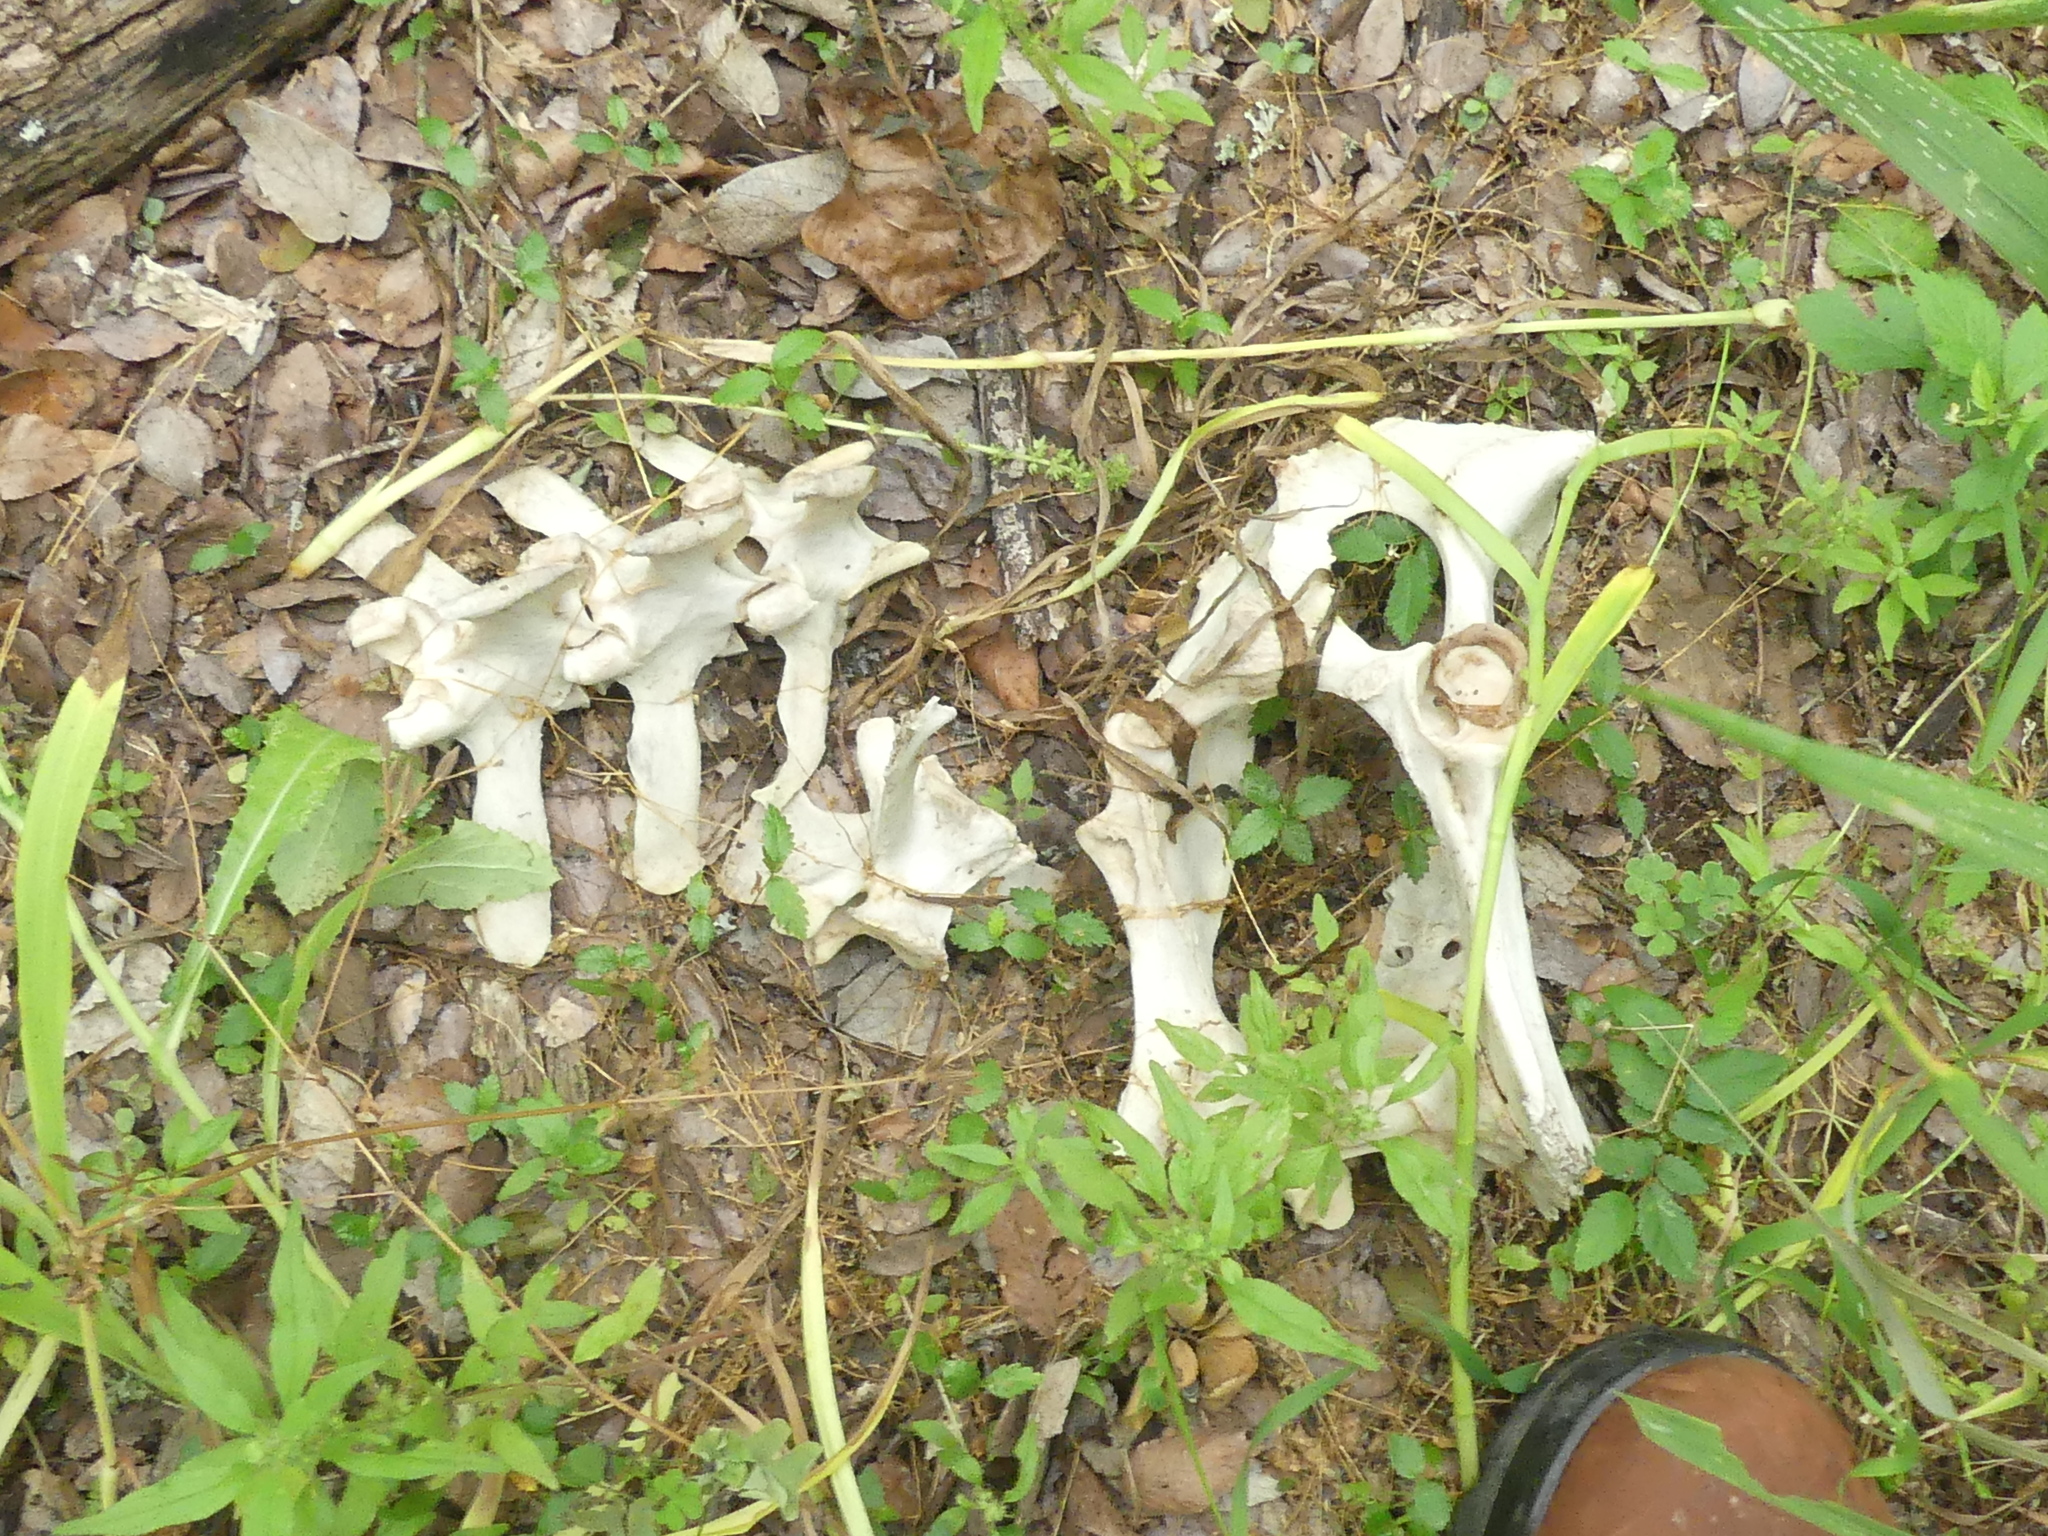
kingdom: Animalia
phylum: Chordata
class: Mammalia
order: Artiodactyla
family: Cervidae
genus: Odocoileus
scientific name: Odocoileus virginianus
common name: White-tailed deer
